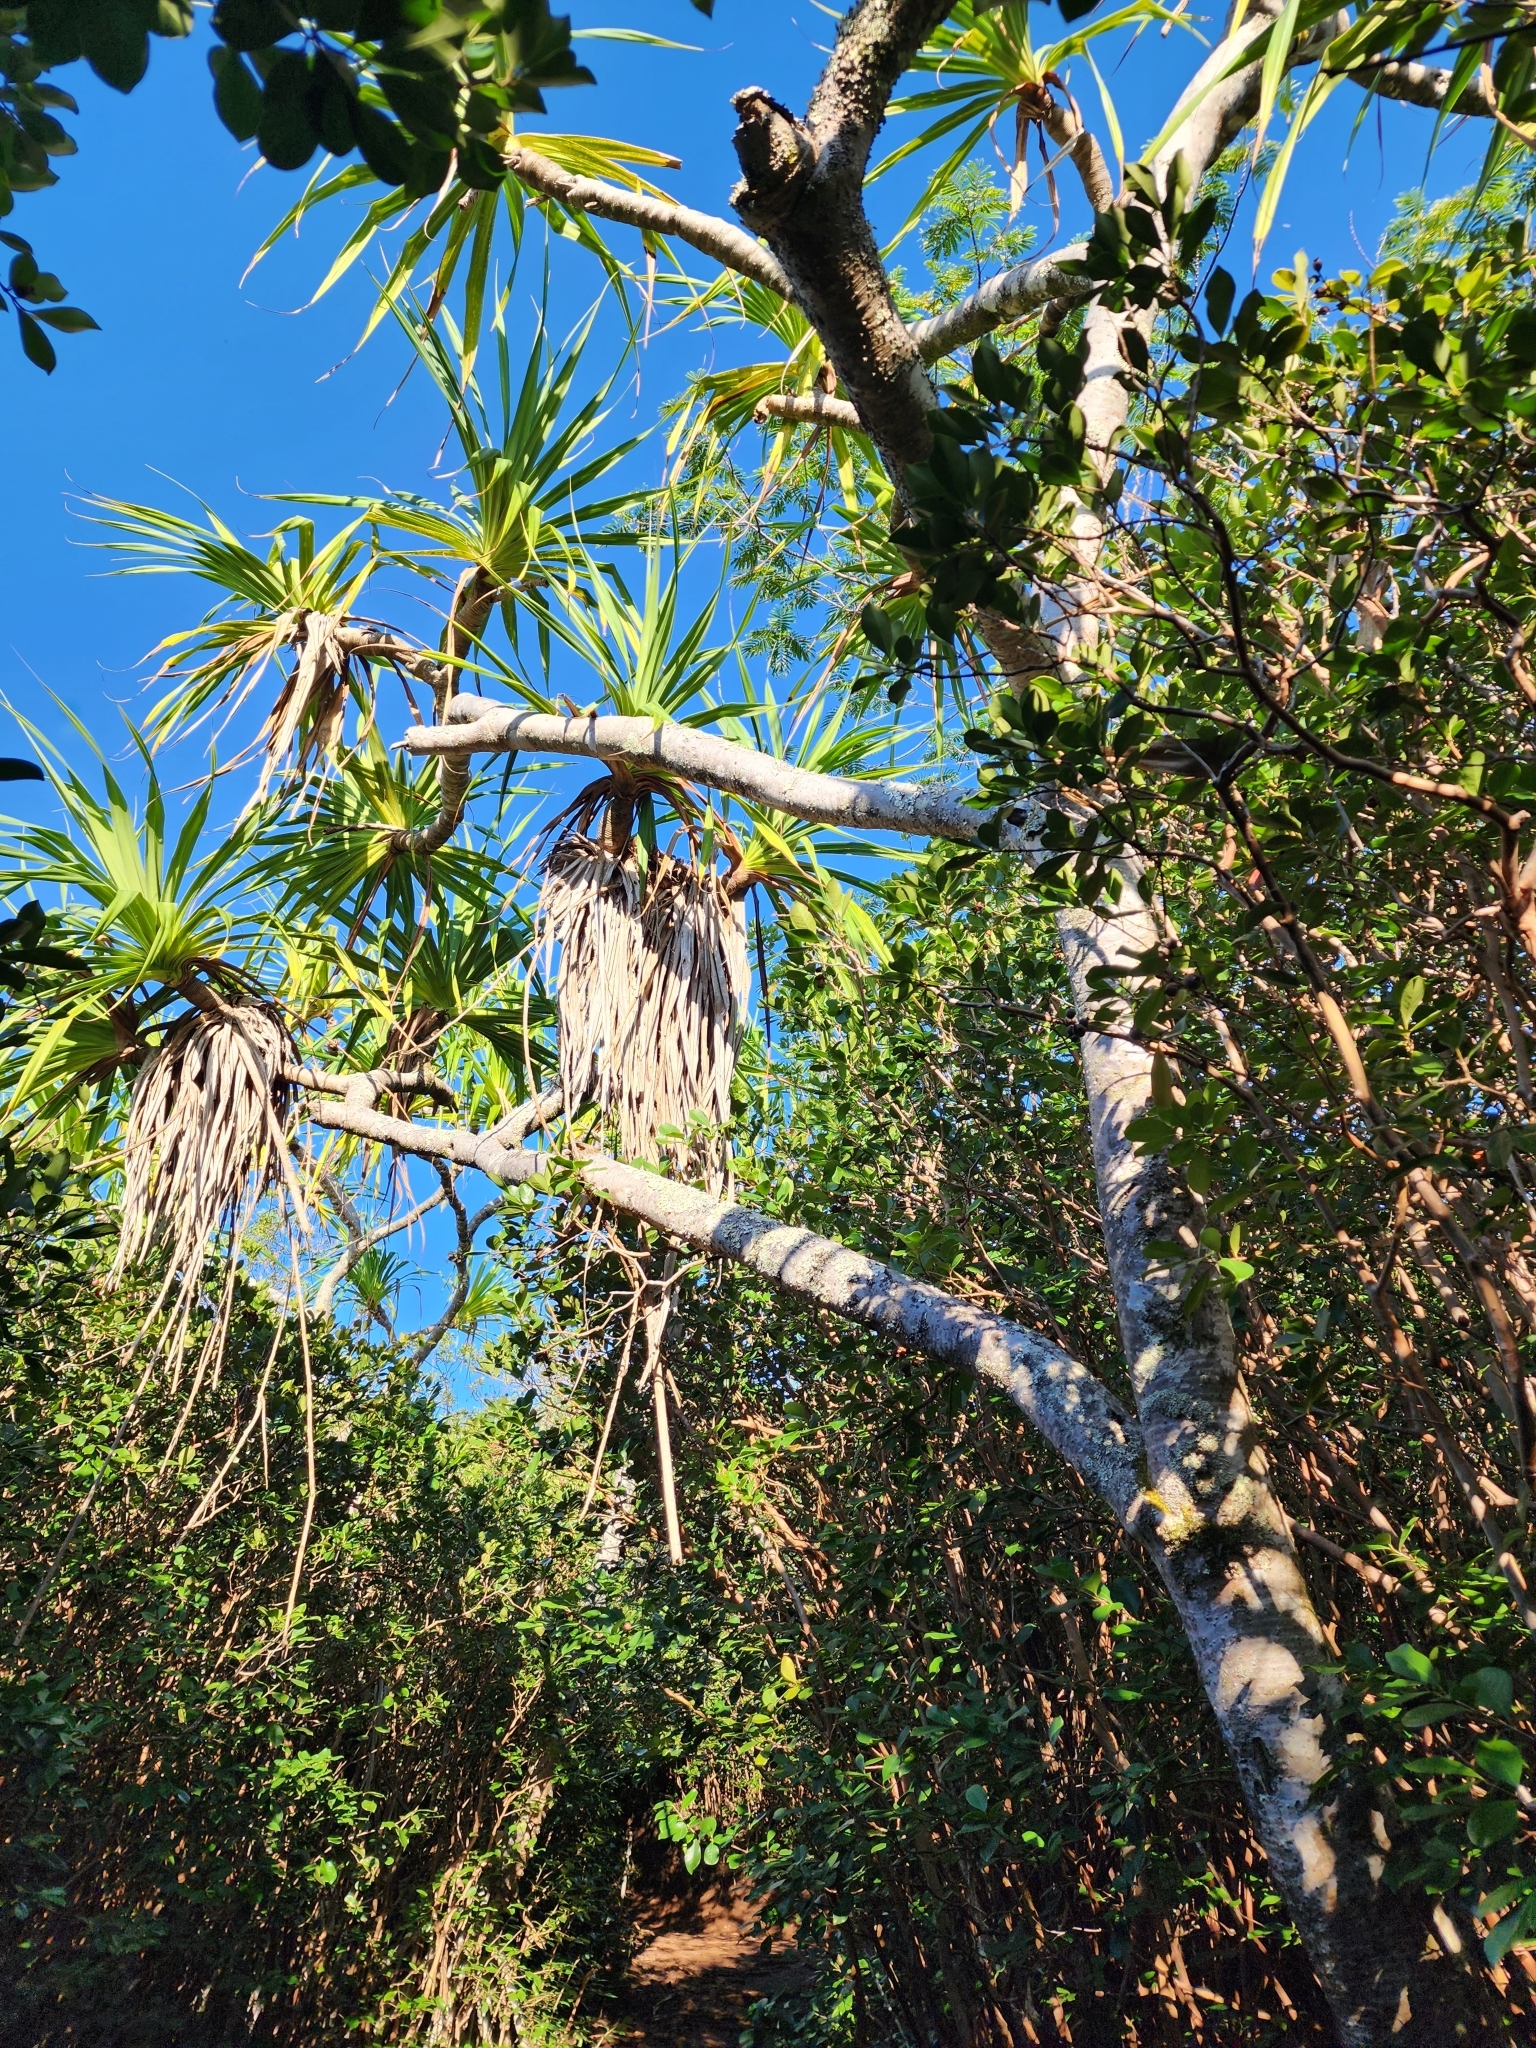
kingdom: Plantae
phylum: Tracheophyta
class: Liliopsida
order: Pandanales
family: Pandanaceae
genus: Pandanus
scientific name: Pandanus tectorius
